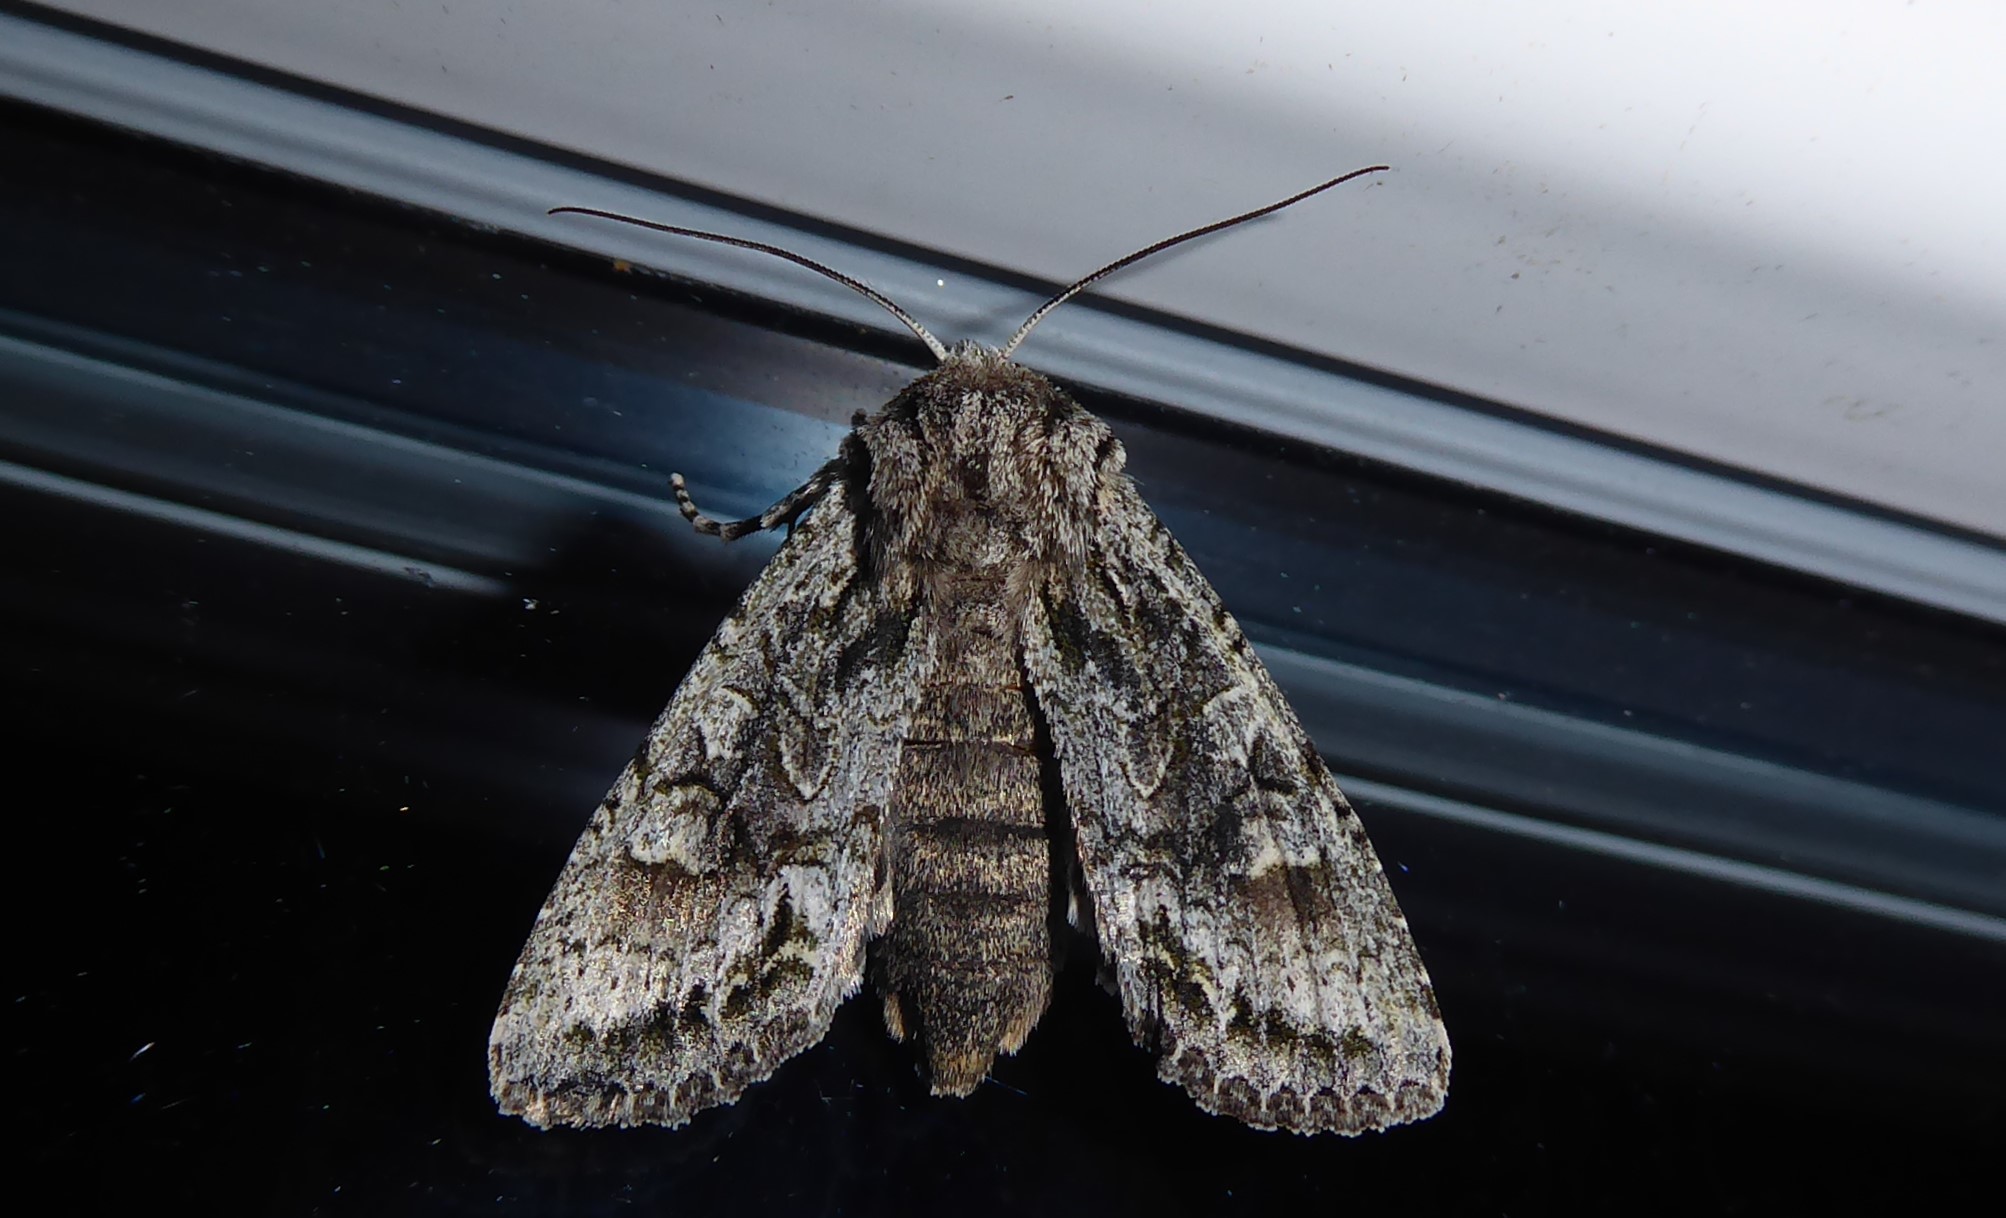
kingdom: Animalia
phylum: Arthropoda
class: Insecta
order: Lepidoptera
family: Noctuidae
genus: Ichneutica
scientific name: Ichneutica mutans
